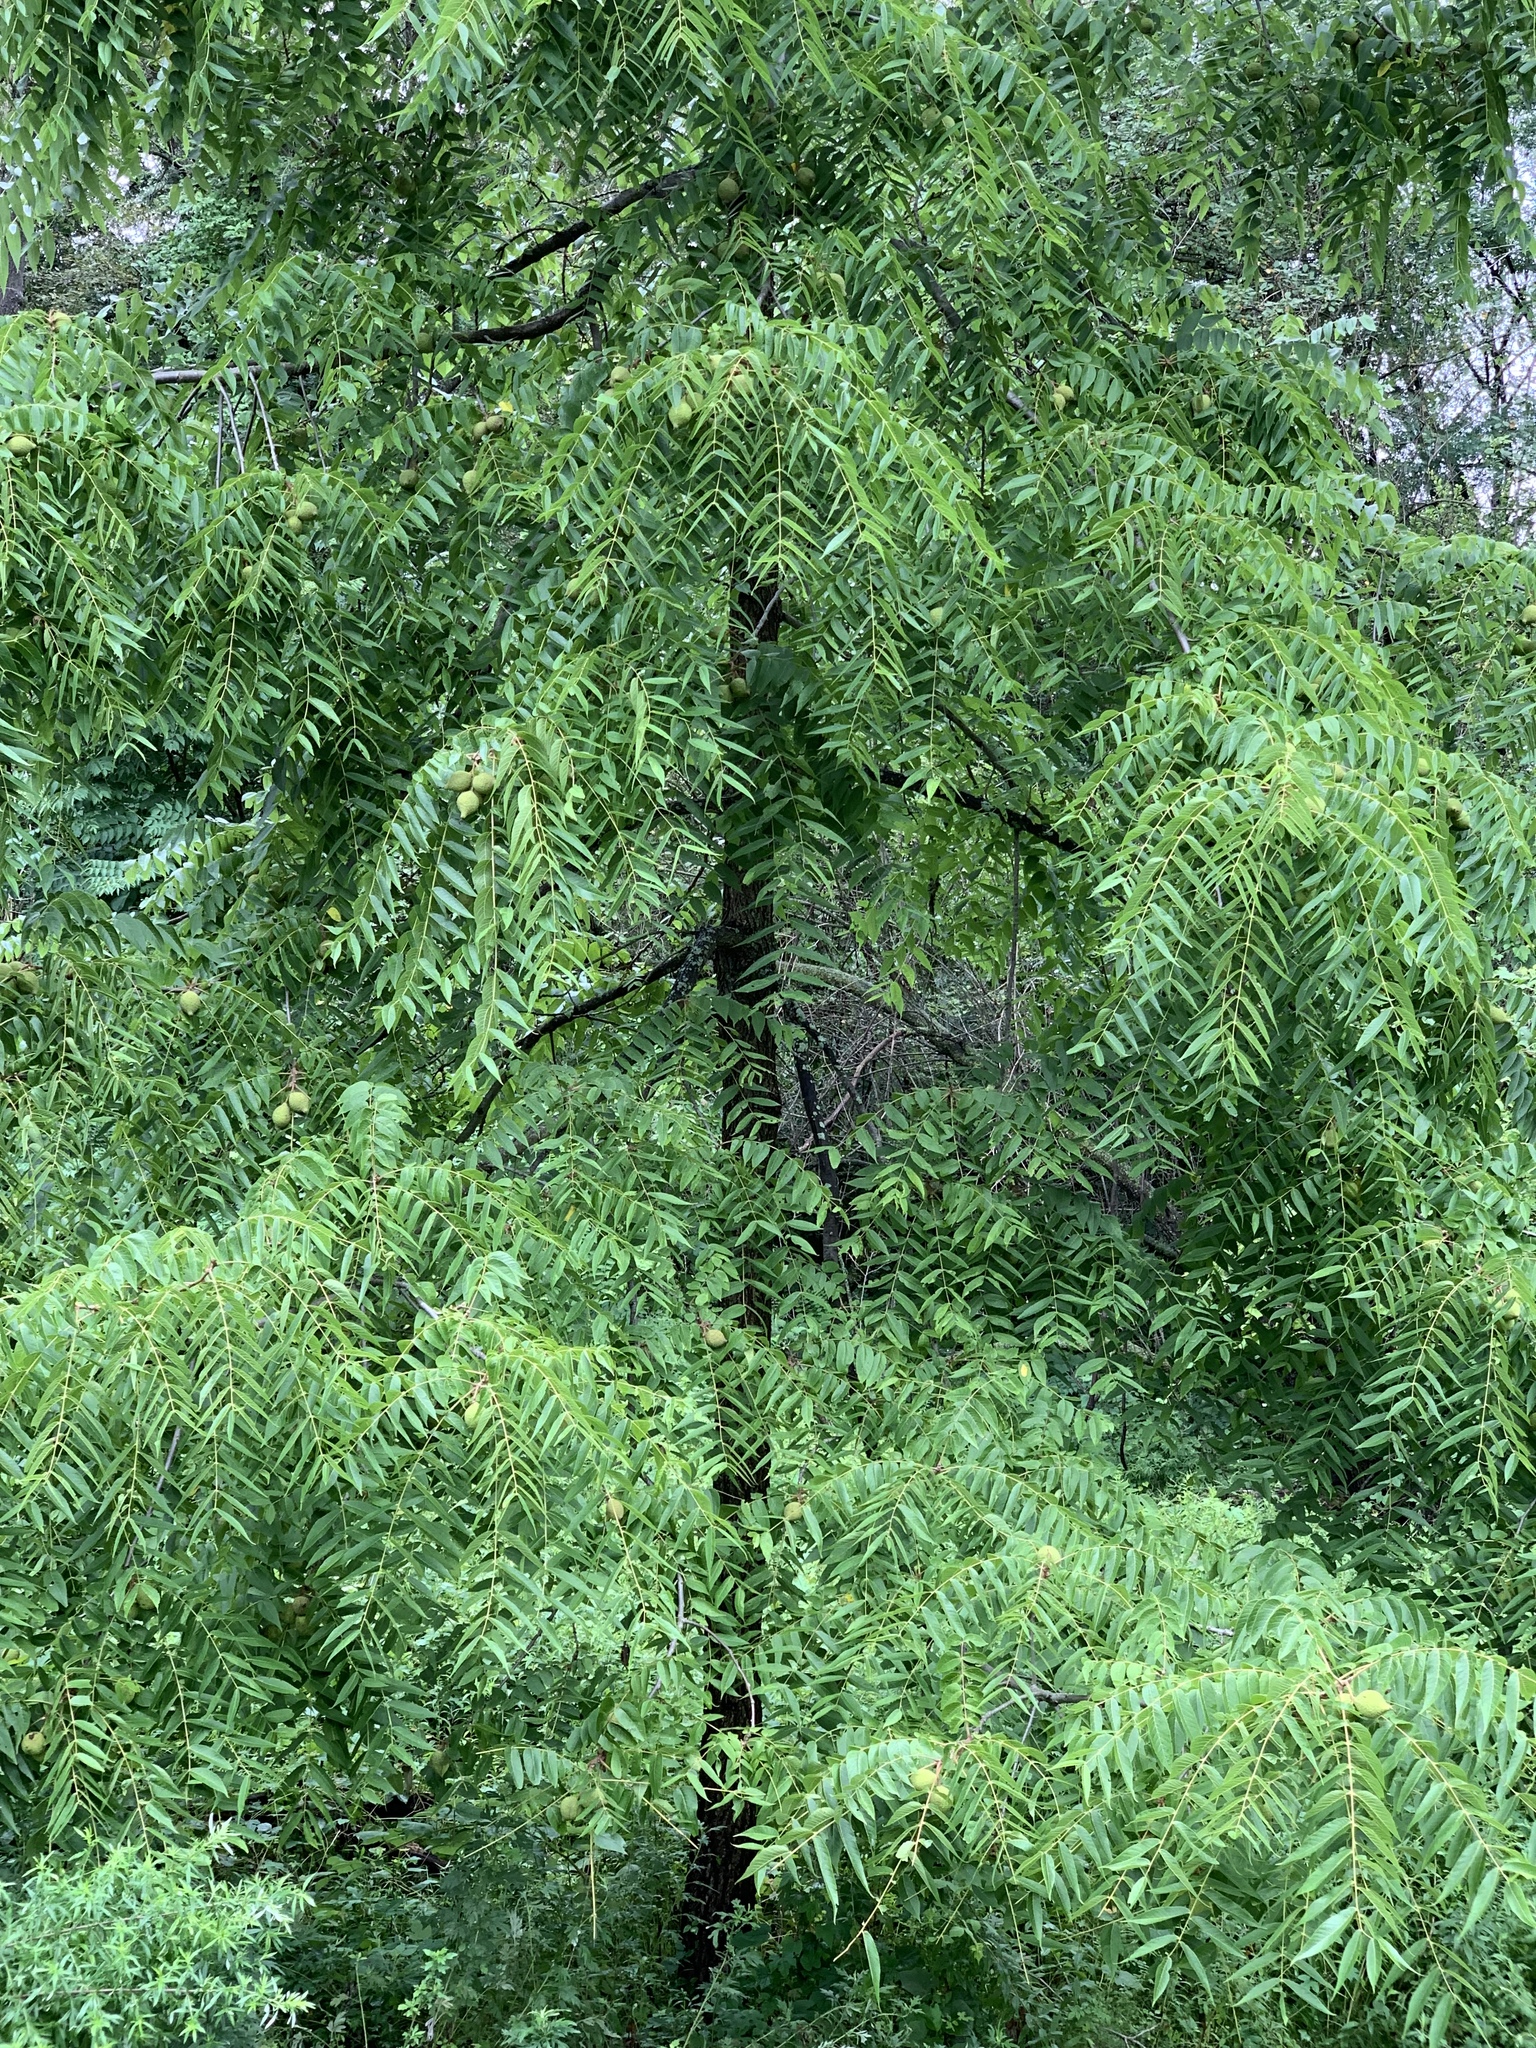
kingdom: Plantae
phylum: Tracheophyta
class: Magnoliopsida
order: Fagales
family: Juglandaceae
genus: Juglans
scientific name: Juglans nigra
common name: Black walnut
